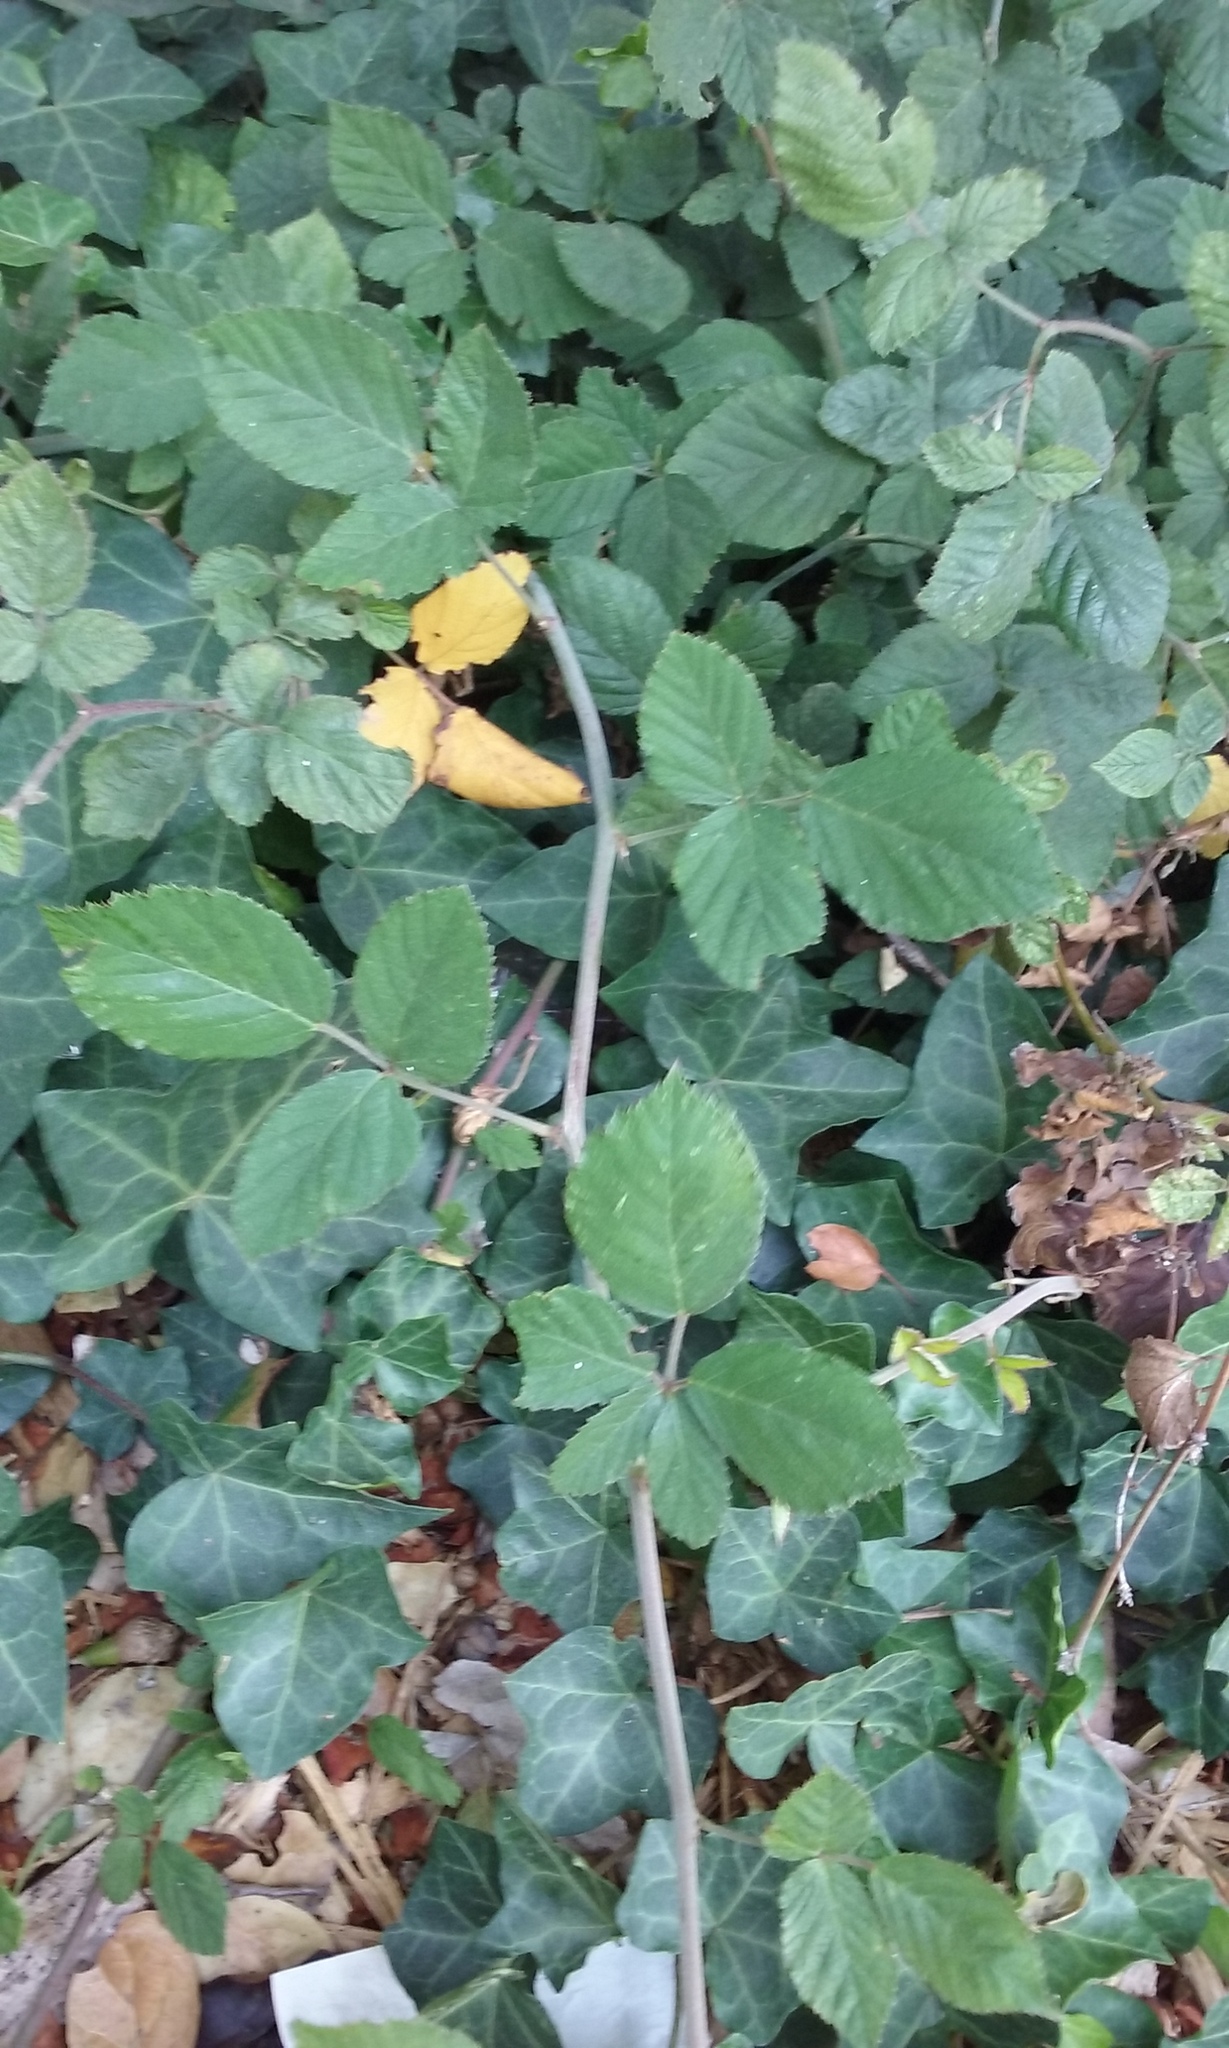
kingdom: Plantae
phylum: Tracheophyta
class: Magnoliopsida
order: Rosales
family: Rosaceae
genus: Rubus
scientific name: Rubus ulmifolius
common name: Elmleaf blackberry
